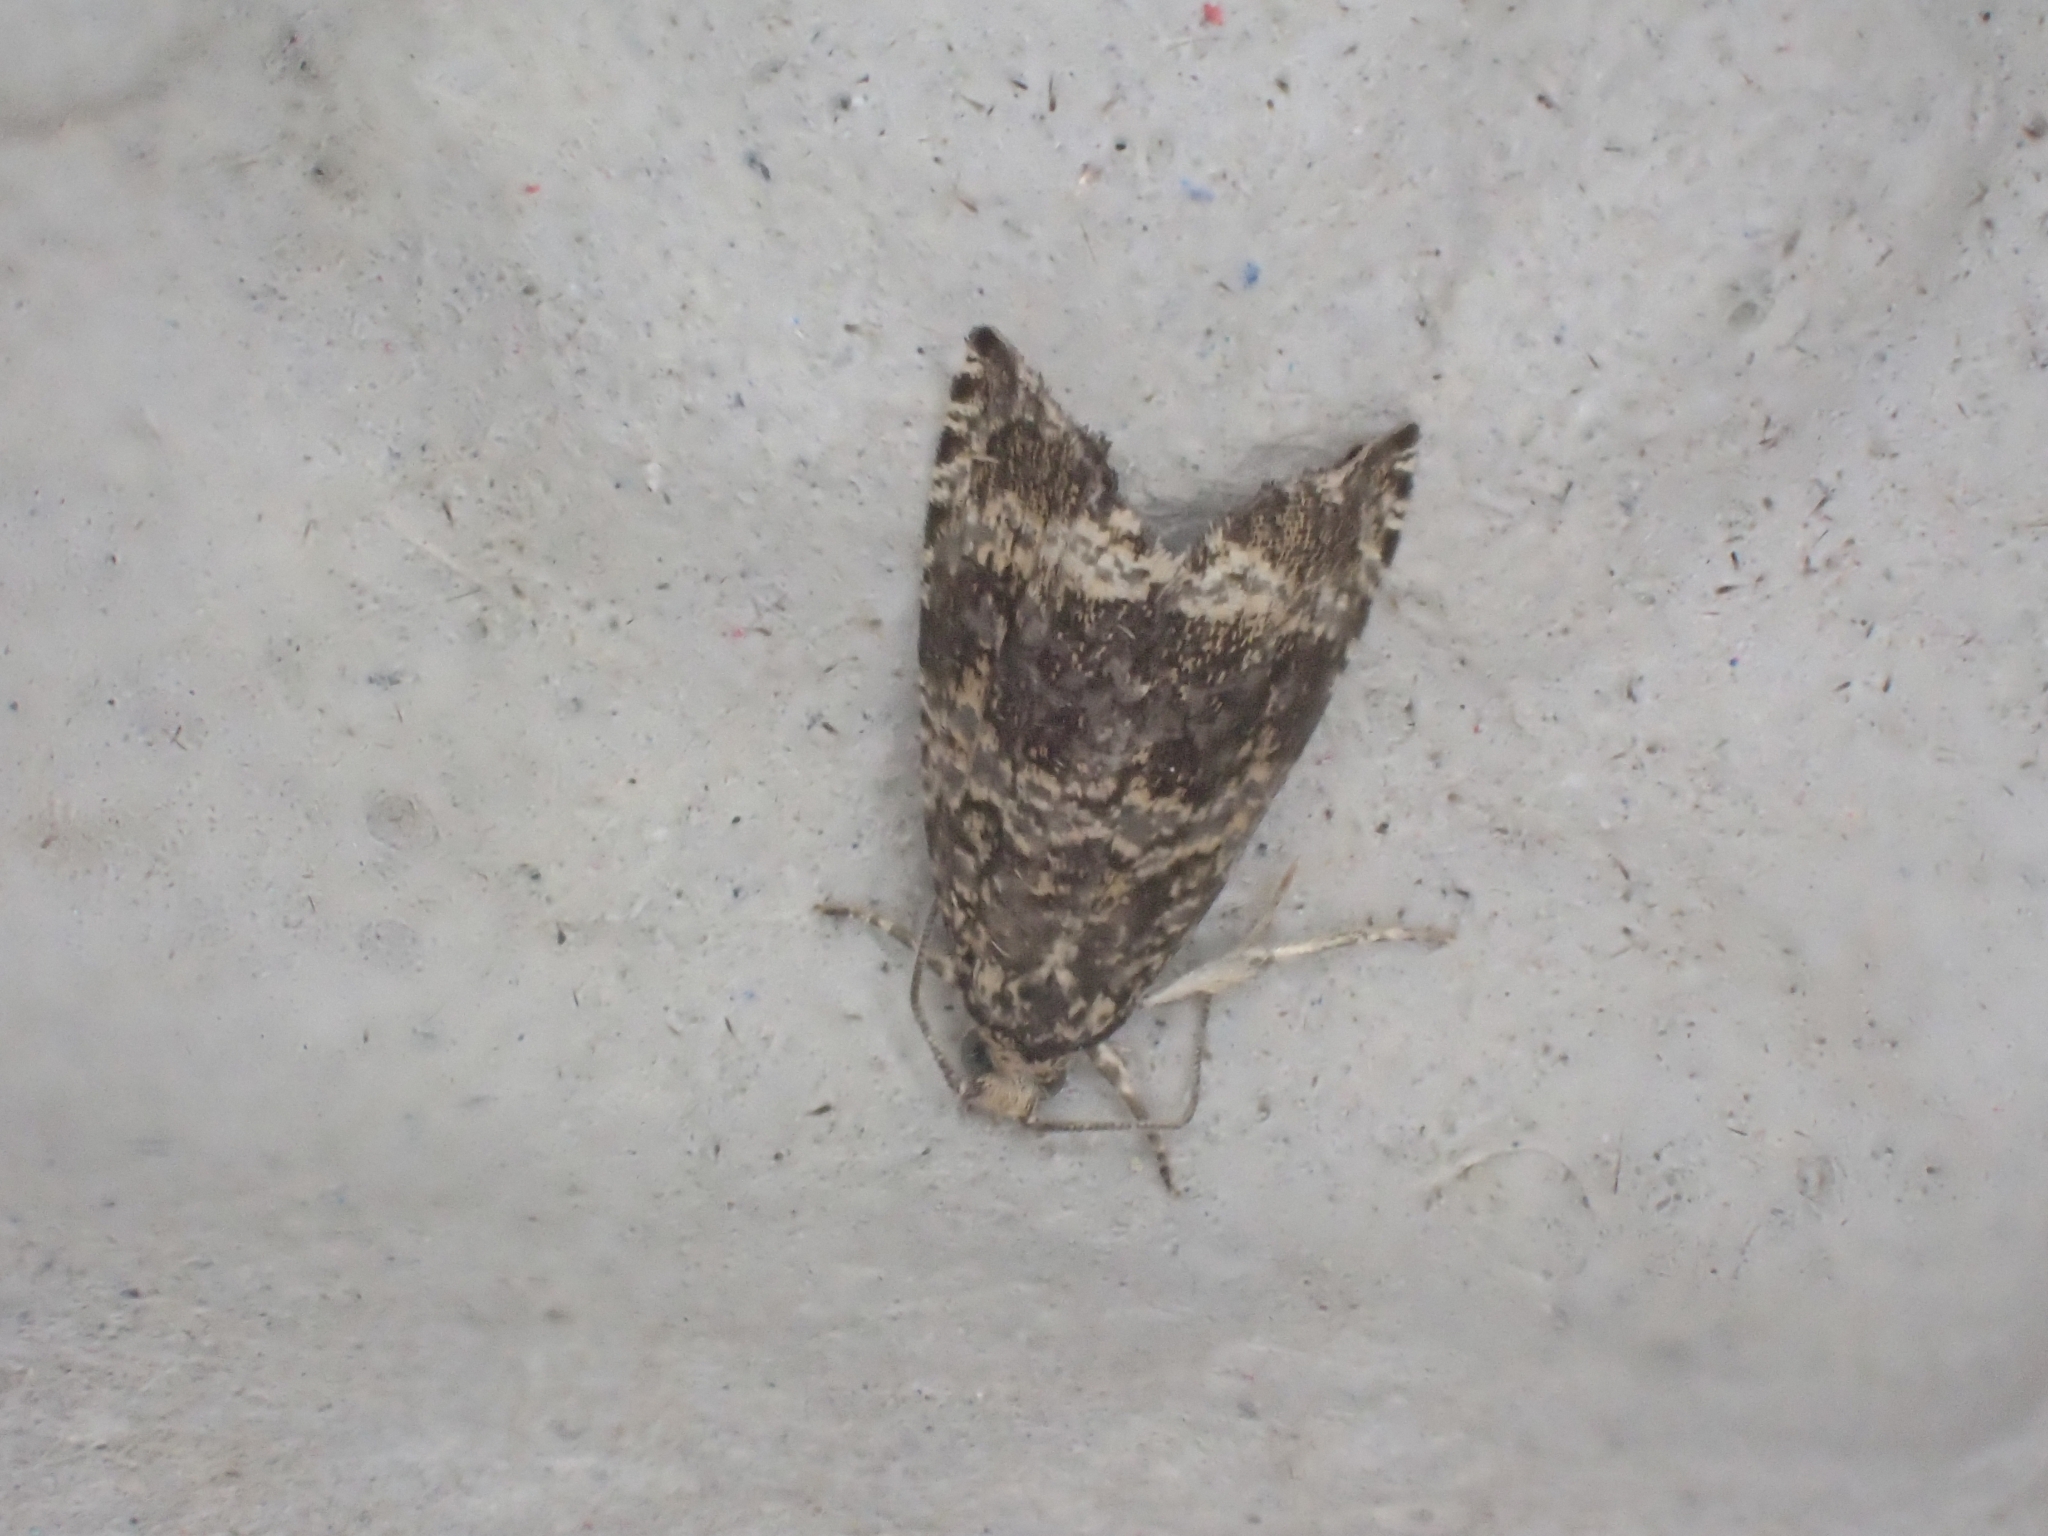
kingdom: Animalia
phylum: Arthropoda
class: Insecta
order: Lepidoptera
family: Tortricidae
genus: Syricoris
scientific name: Syricoris lacunana
